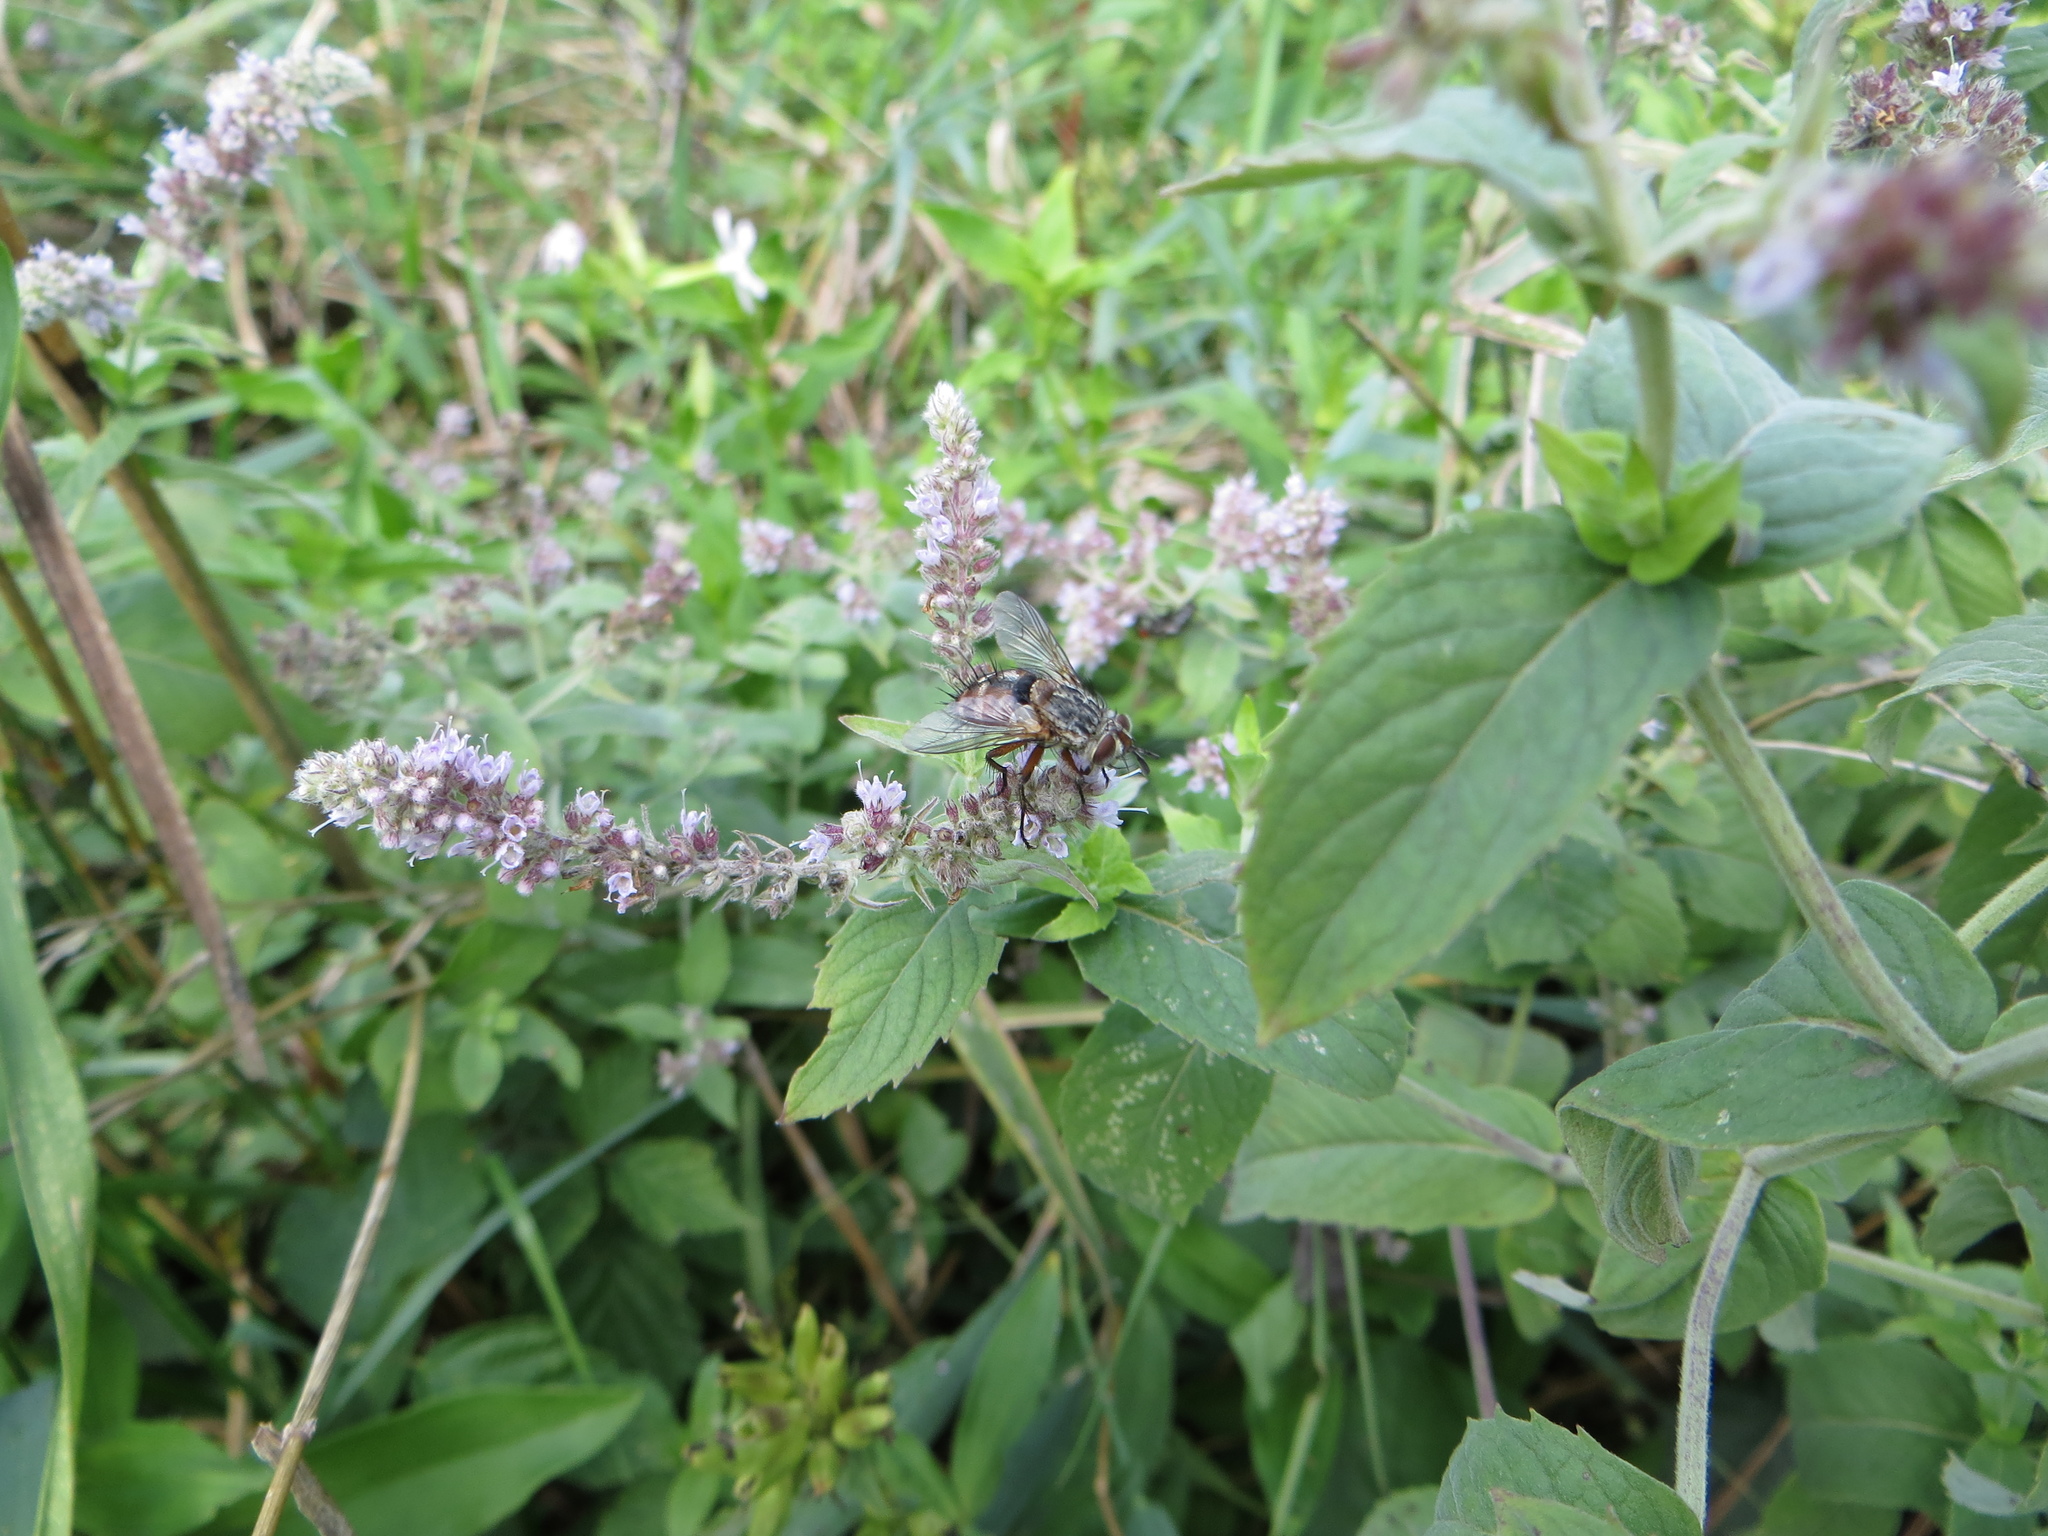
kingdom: Animalia
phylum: Arthropoda
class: Insecta
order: Diptera
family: Tachinidae
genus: Linnaemya
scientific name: Linnaemya vulpina
